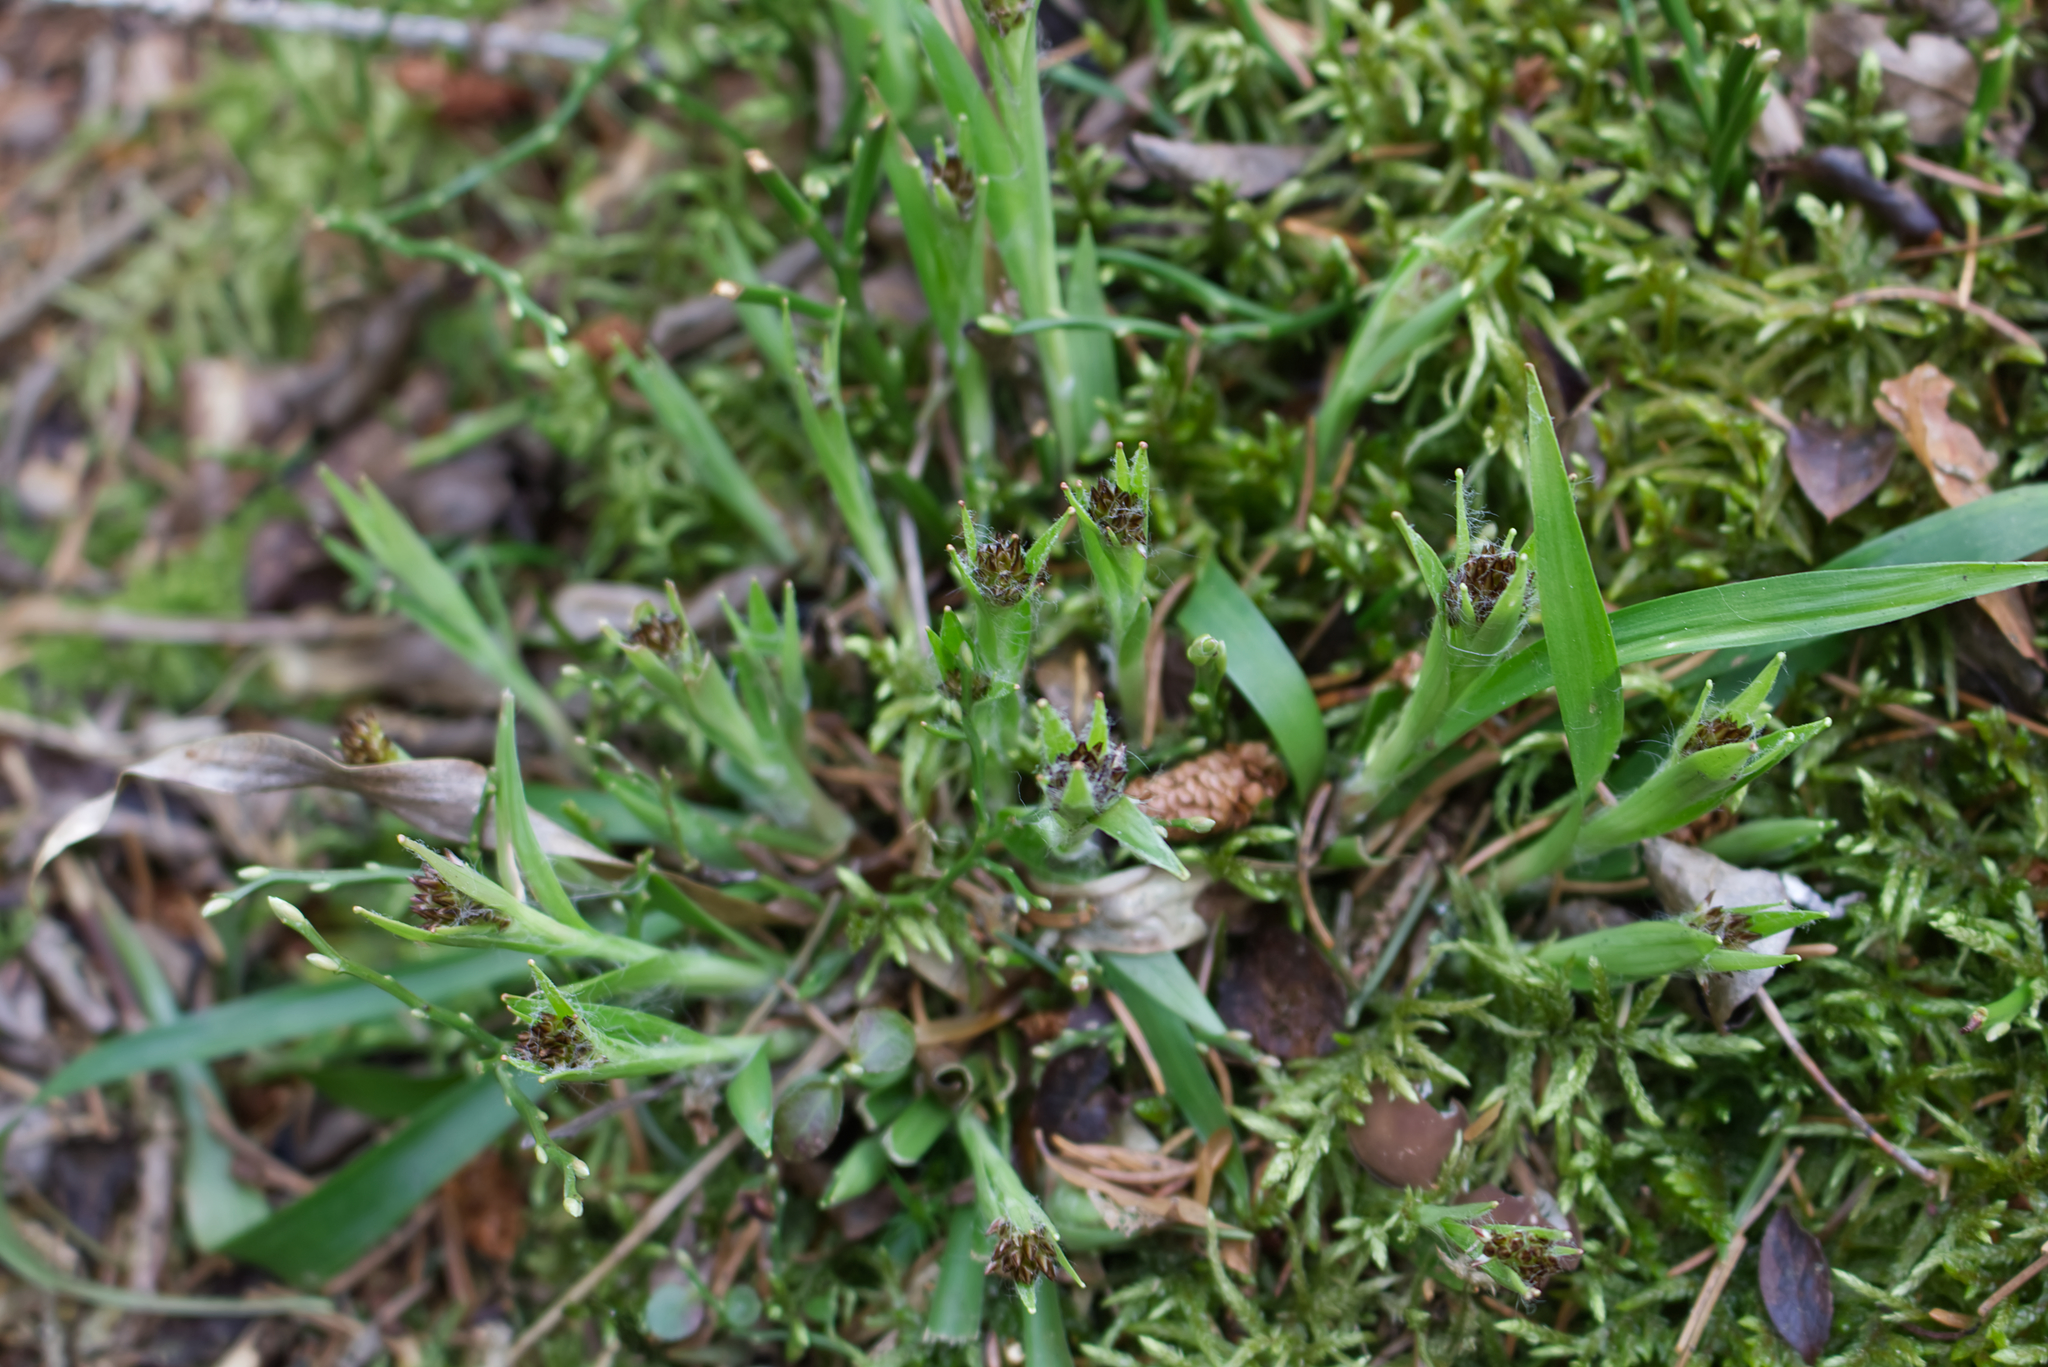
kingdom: Plantae
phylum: Tracheophyta
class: Liliopsida
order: Poales
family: Juncaceae
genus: Luzula
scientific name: Luzula pilosa
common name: Hairy wood-rush
